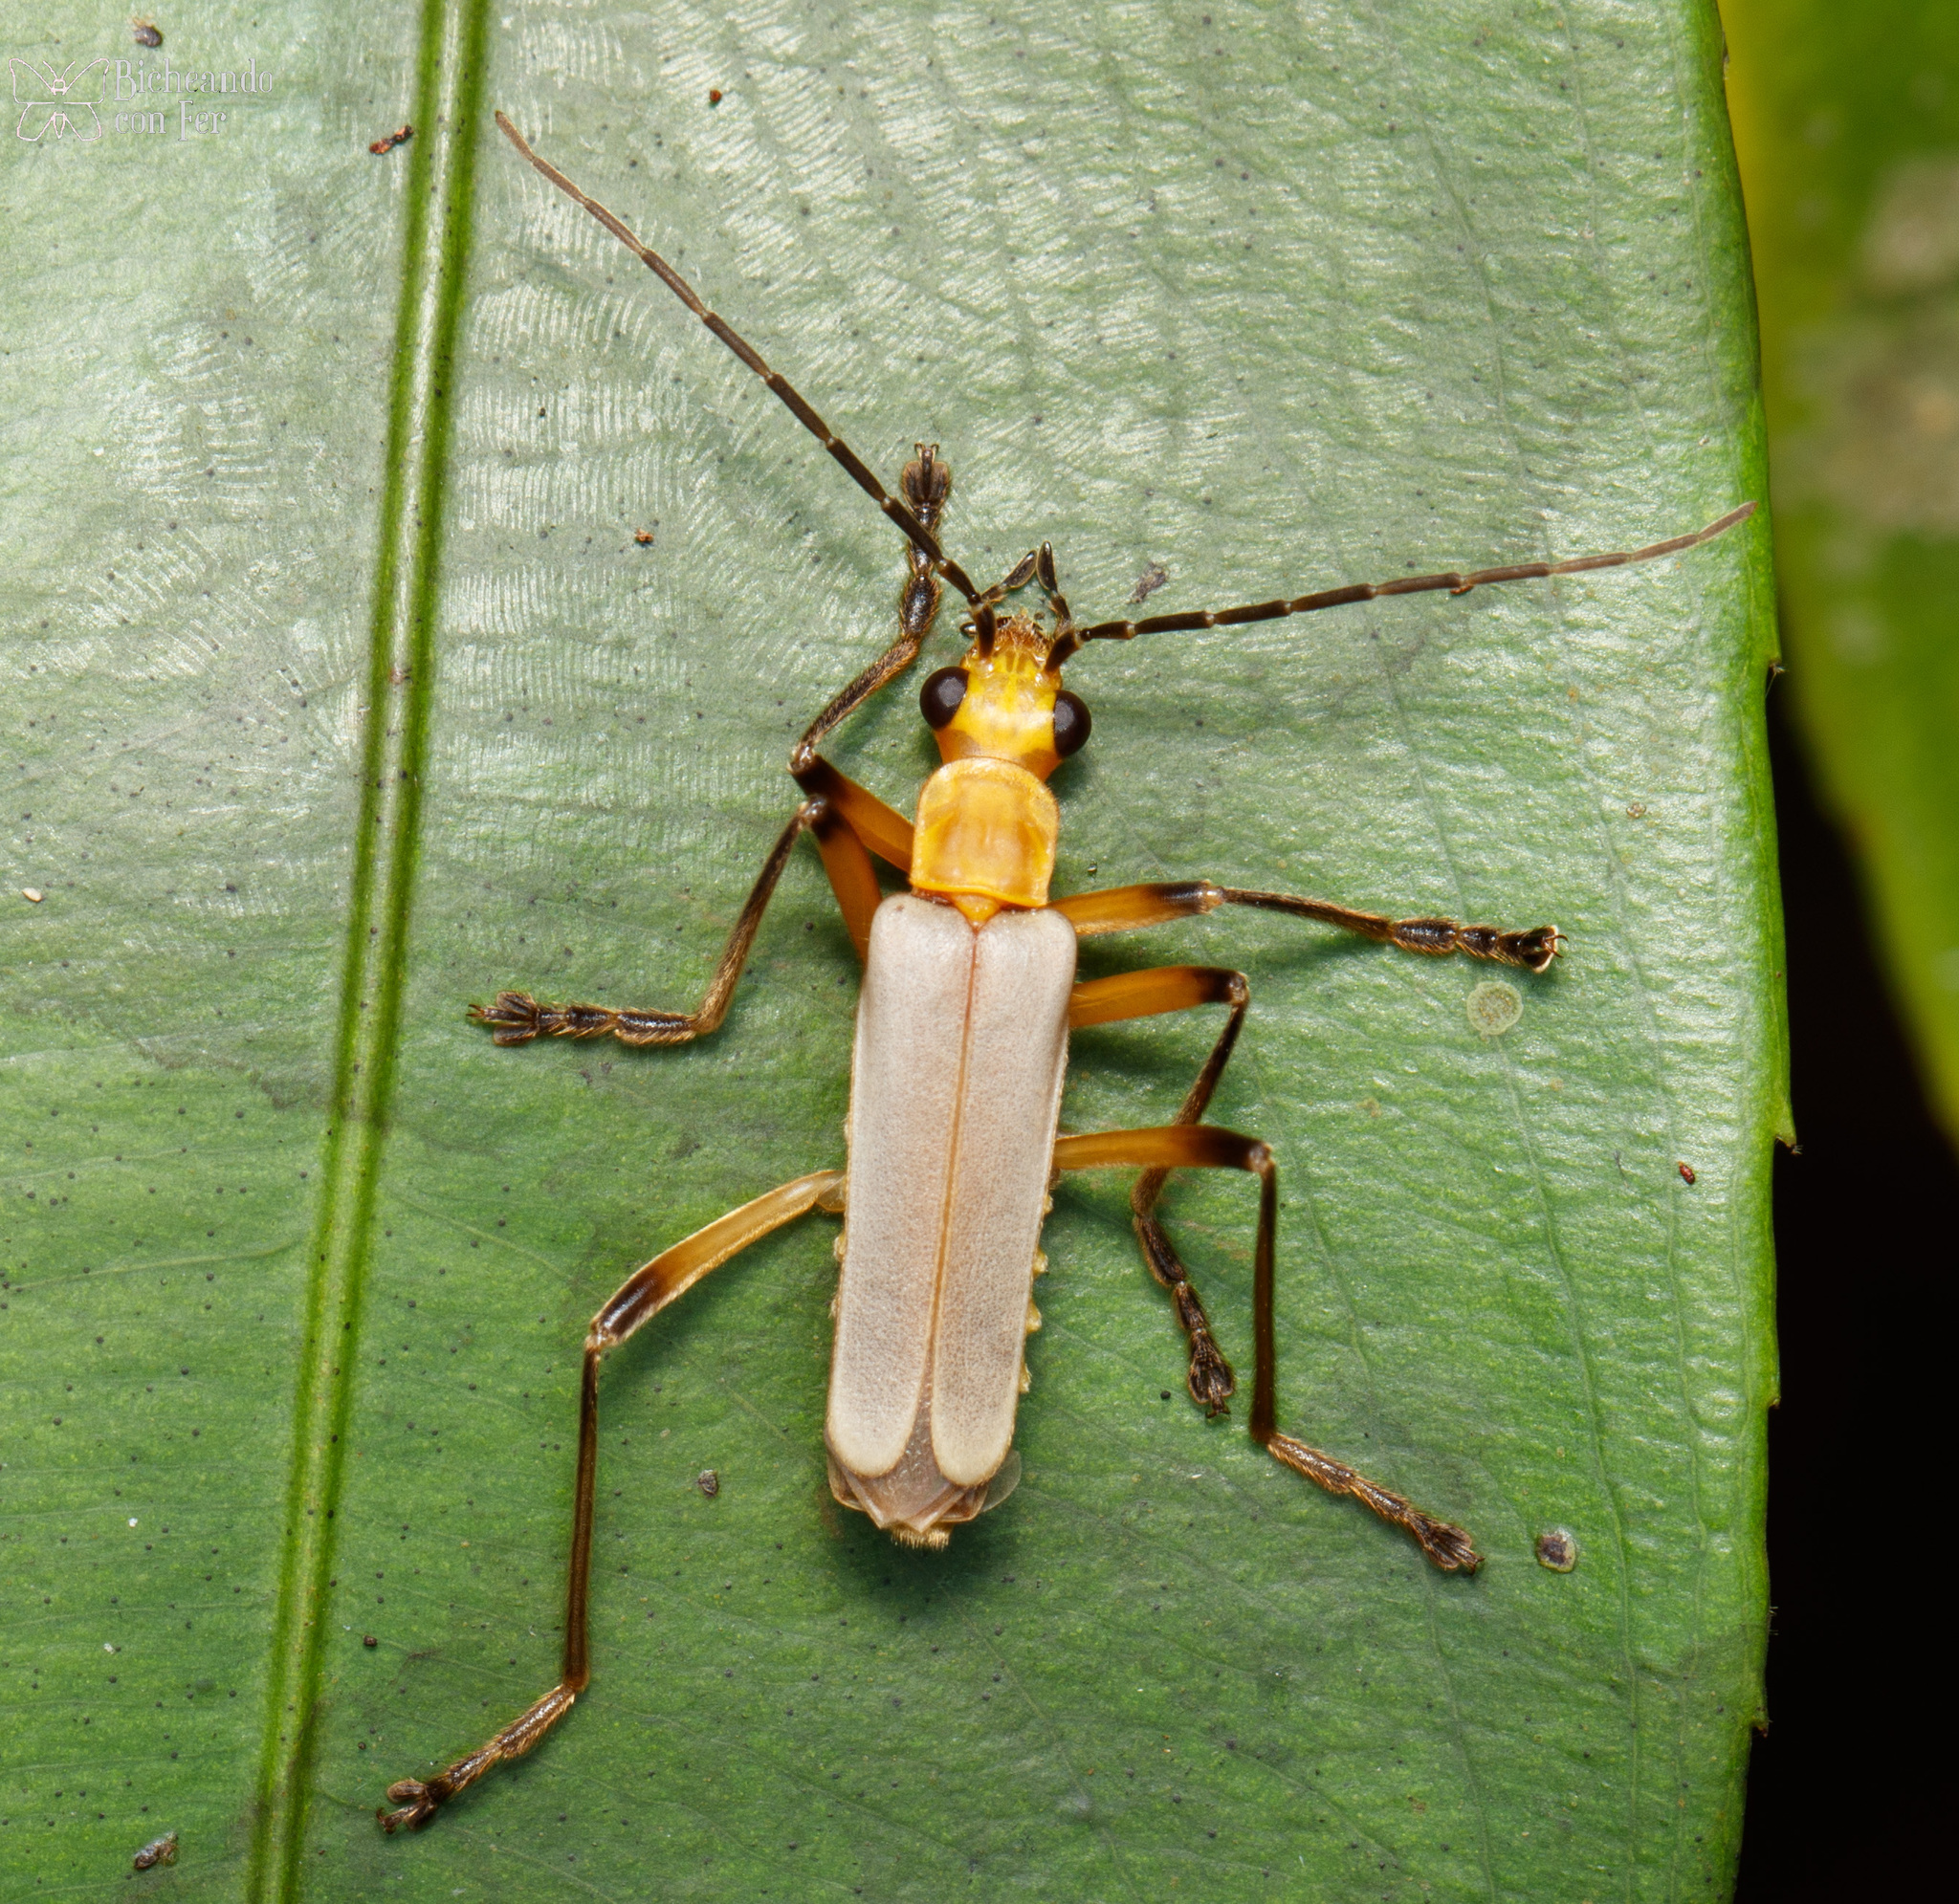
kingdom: Animalia
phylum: Arthropoda
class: Insecta
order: Coleoptera
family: Cantharidae
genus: Chauliognathus
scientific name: Chauliognathus
